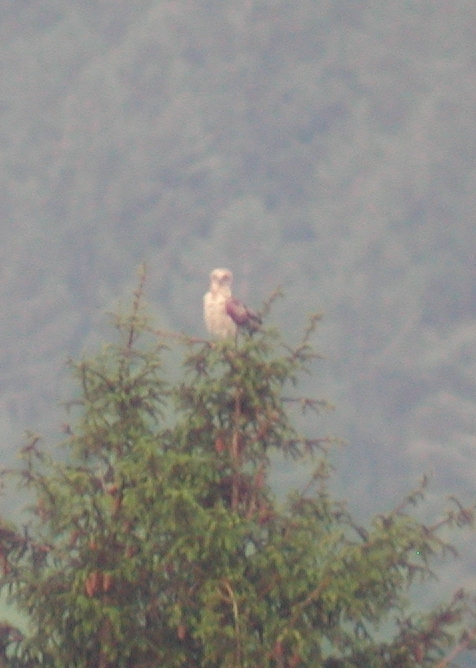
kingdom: Animalia
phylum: Chordata
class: Aves
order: Accipitriformes
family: Accipitridae
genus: Circaetus
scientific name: Circaetus gallicus
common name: Short-toed snake eagle
